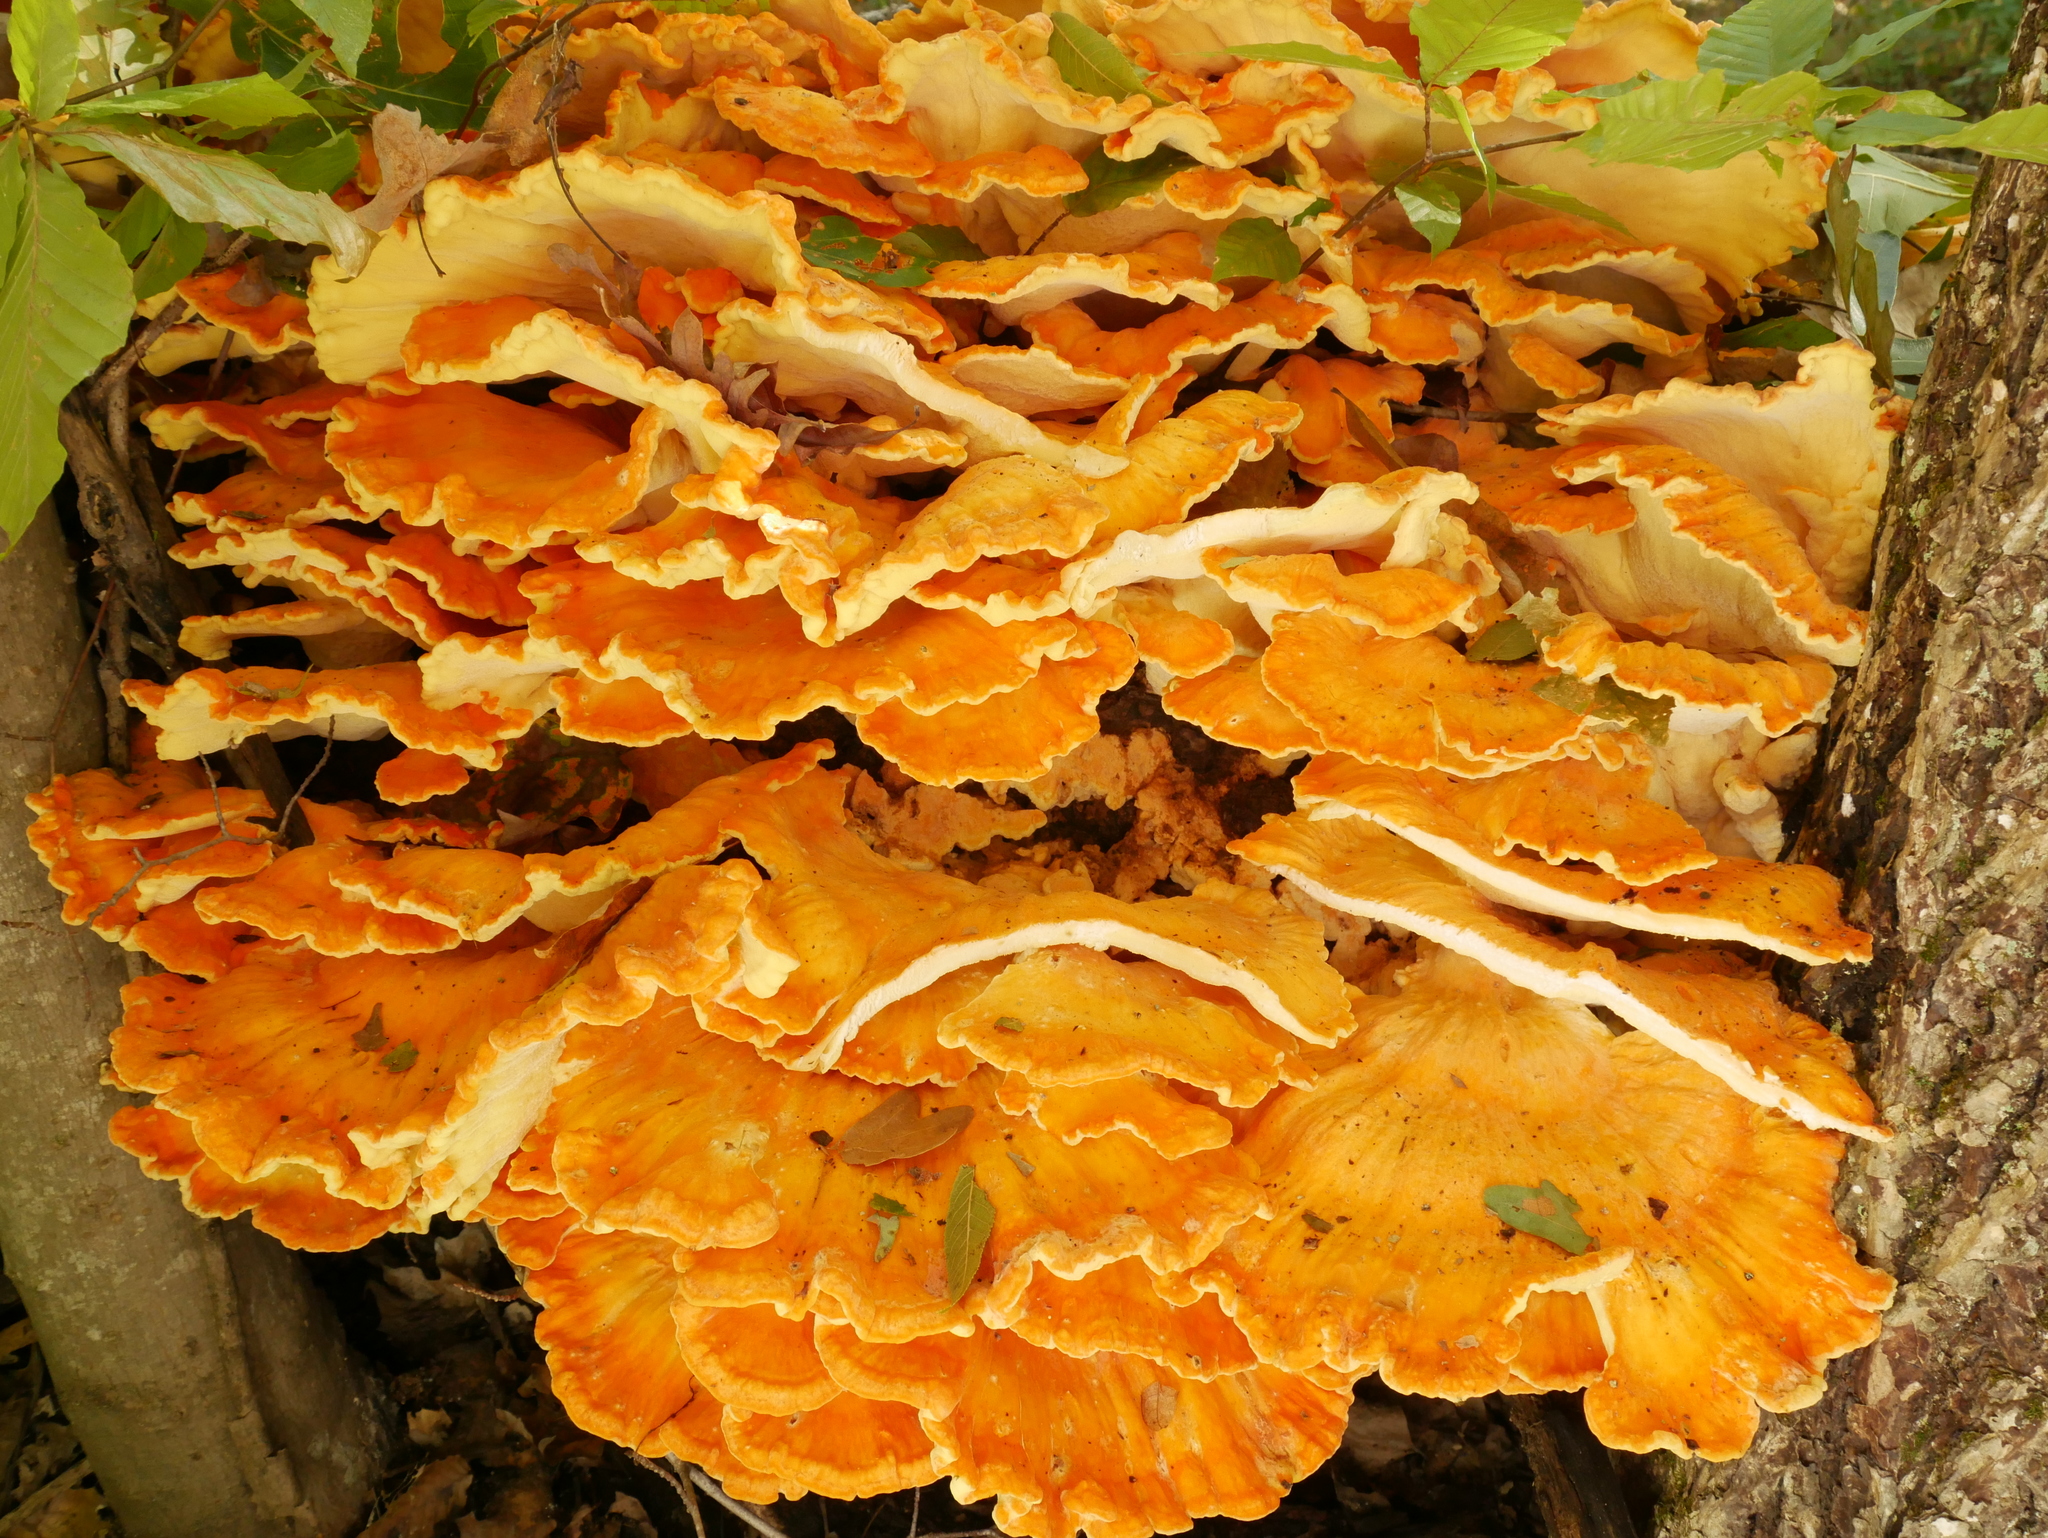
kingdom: Fungi
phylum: Basidiomycota
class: Agaricomycetes
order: Polyporales
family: Laetiporaceae
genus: Laetiporus
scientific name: Laetiporus sulphureus
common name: Chicken of the woods
